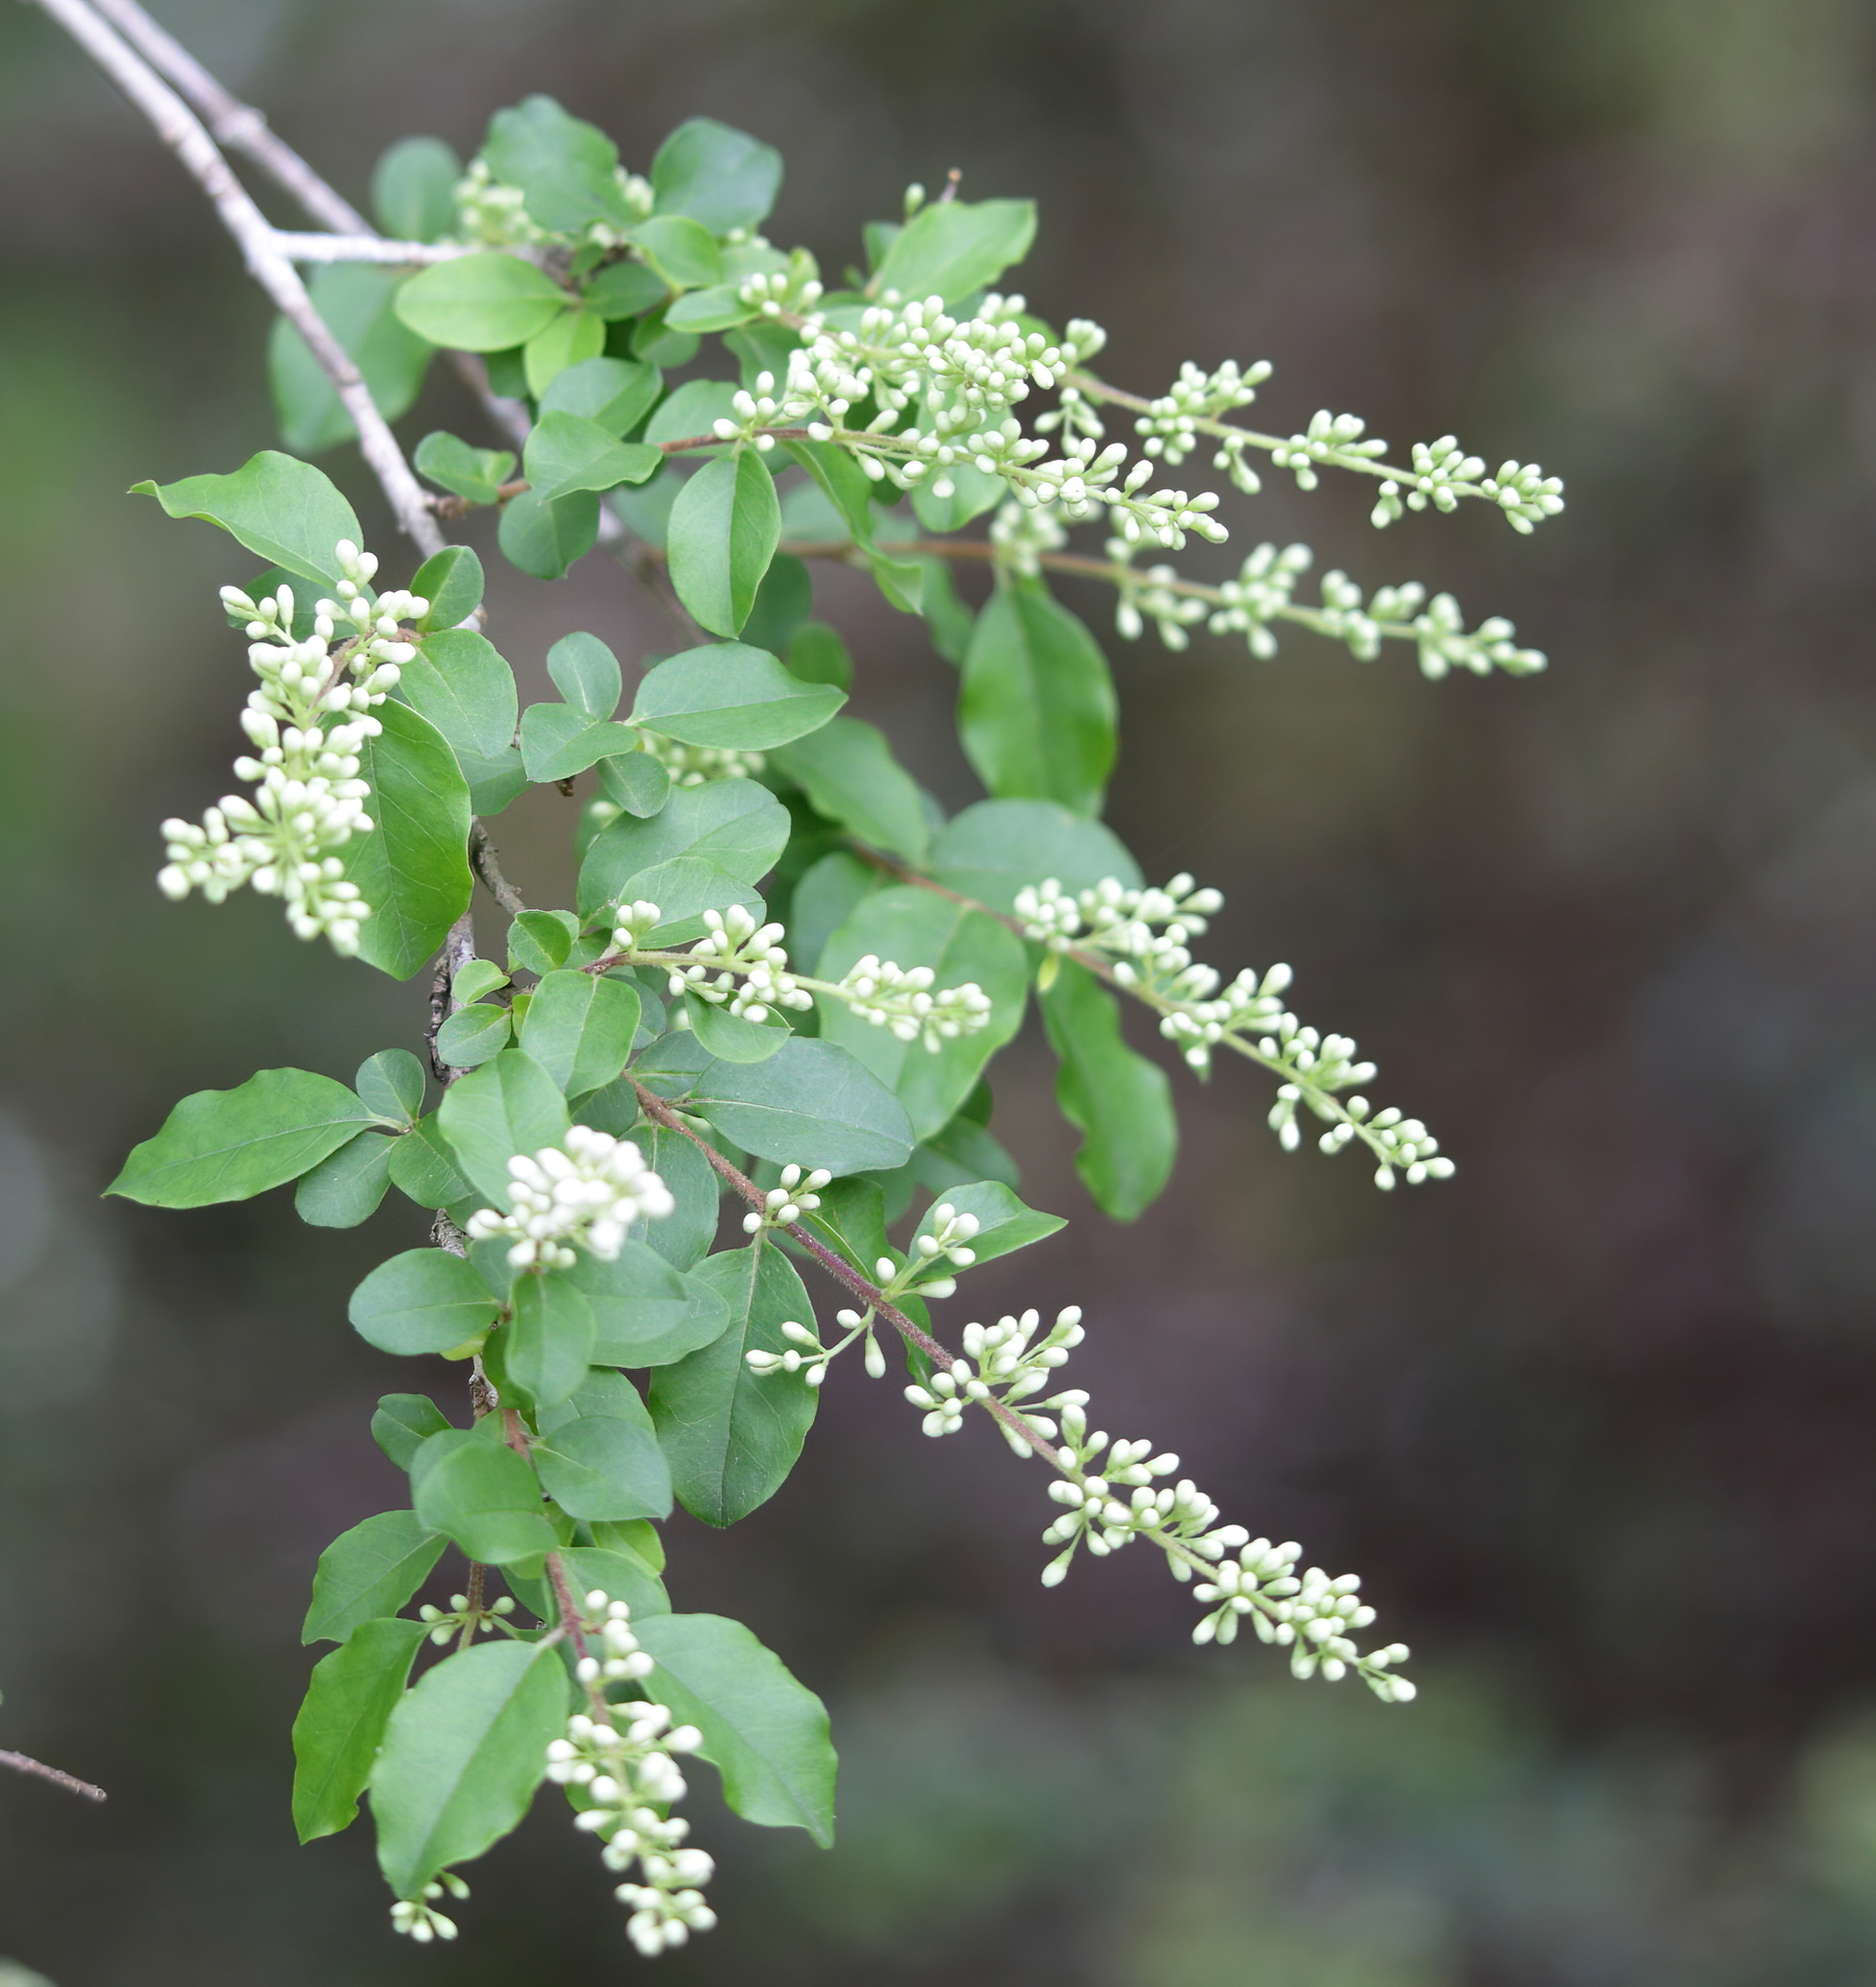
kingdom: Plantae
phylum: Tracheophyta
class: Magnoliopsida
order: Lamiales
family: Oleaceae
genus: Ligustrum
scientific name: Ligustrum sinense
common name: Chinese privet
